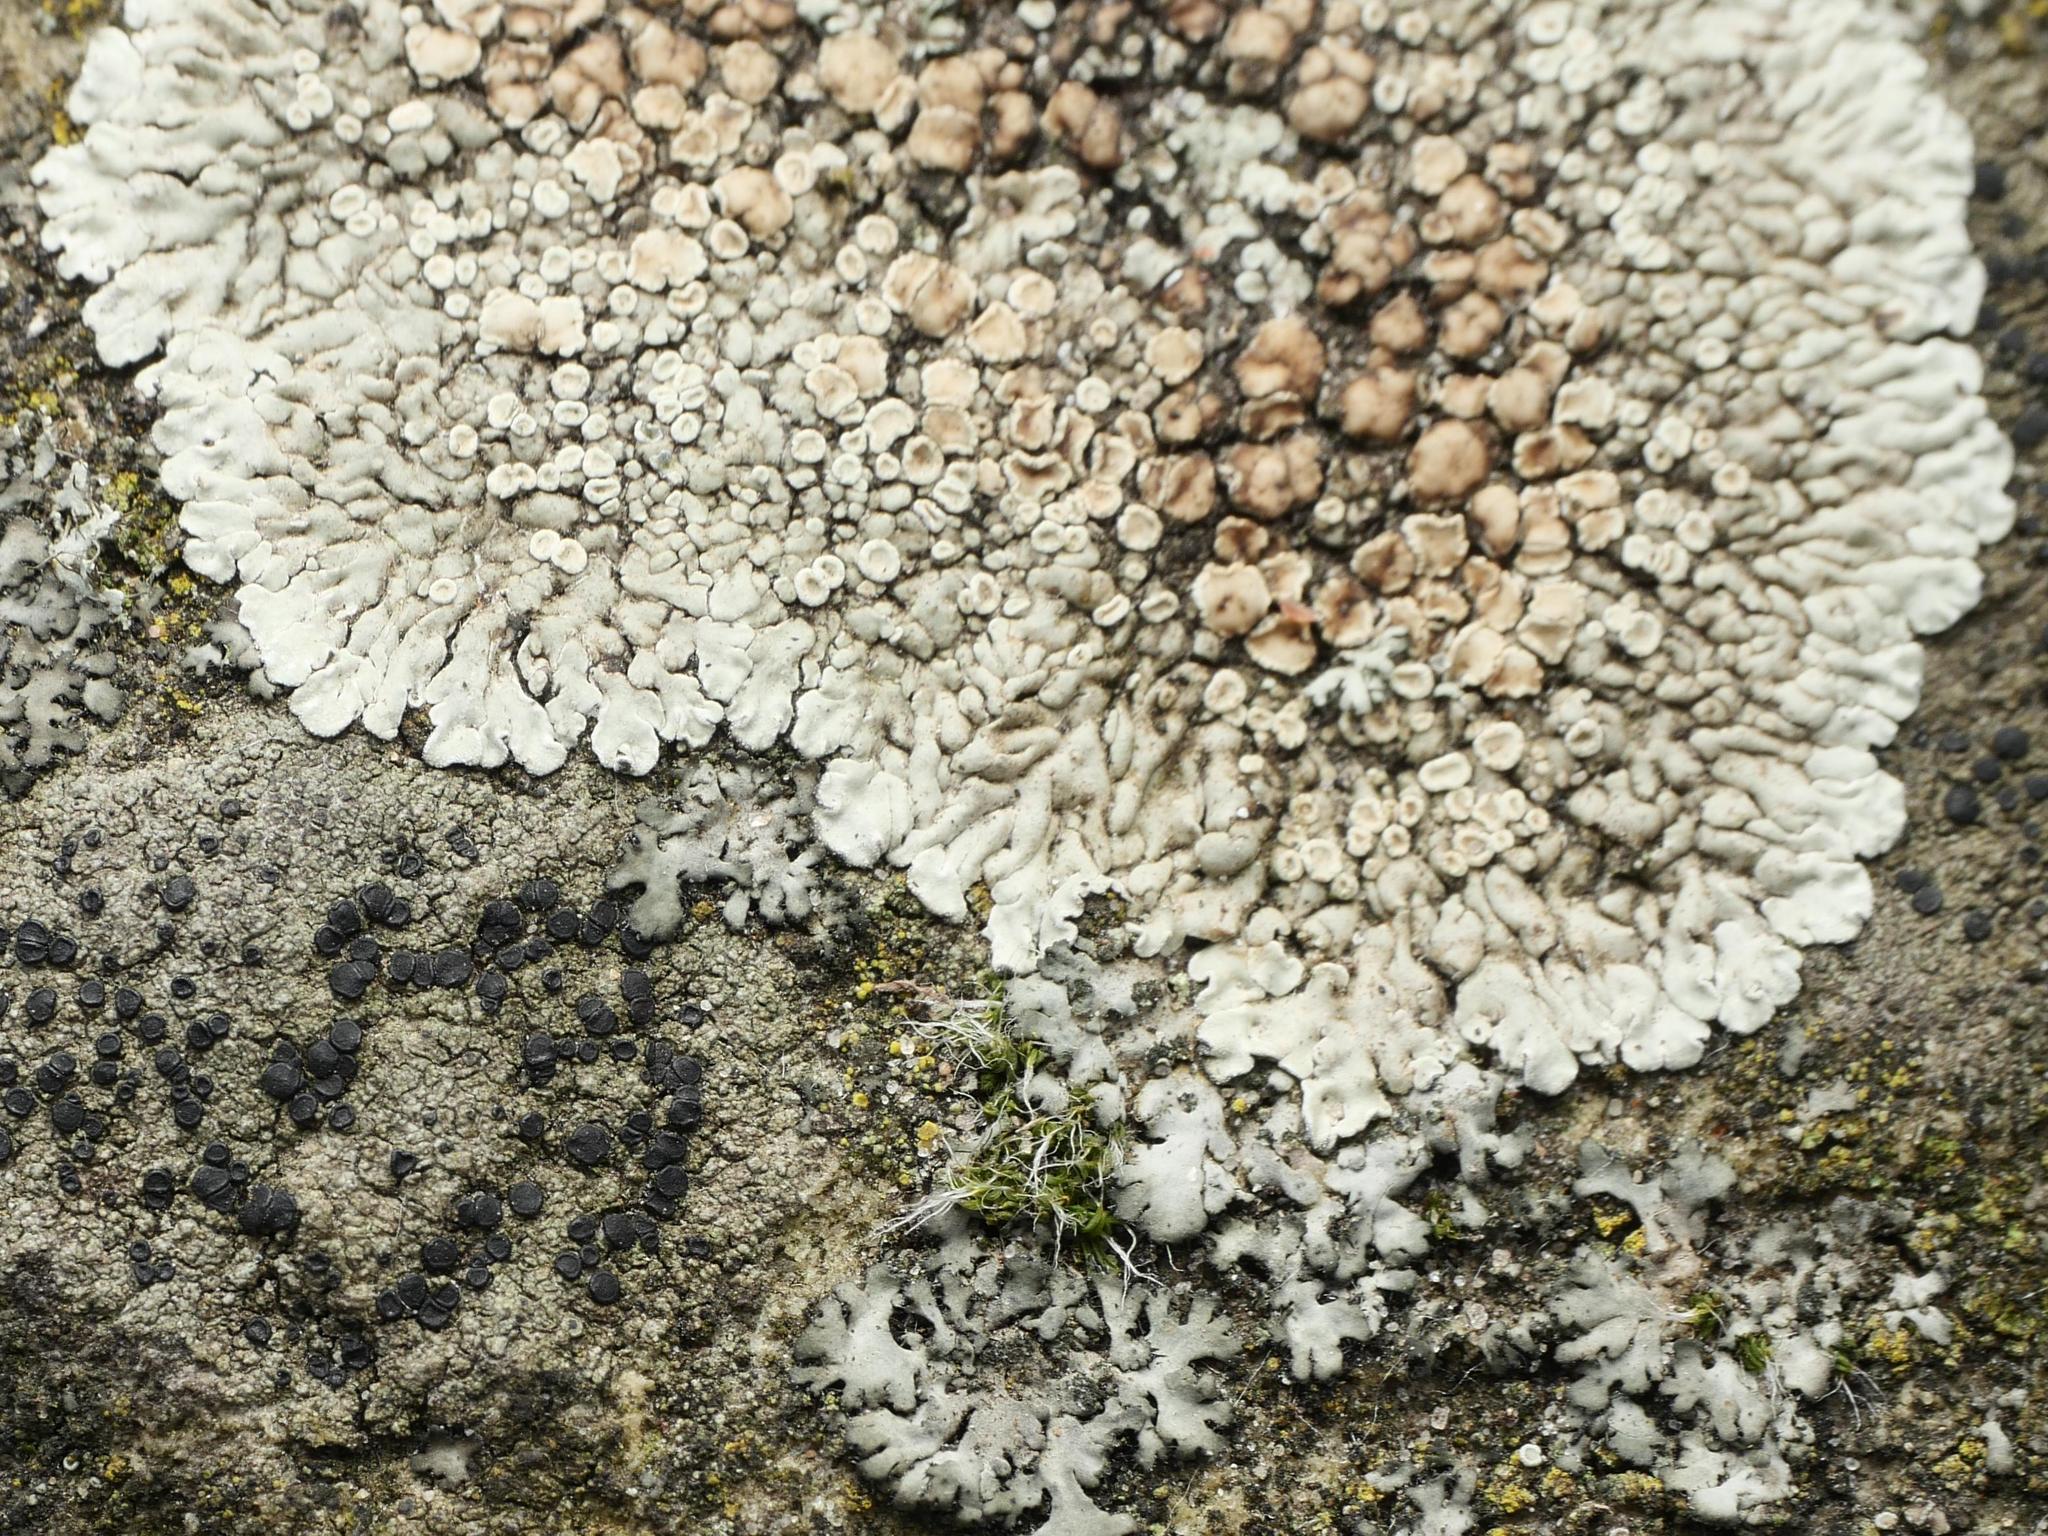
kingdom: Fungi
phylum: Ascomycota
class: Lecanoromycetes
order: Lecanorales
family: Lecanoraceae
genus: Protoparmeliopsis
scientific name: Protoparmeliopsis muralis
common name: Stonewall rim lichen
